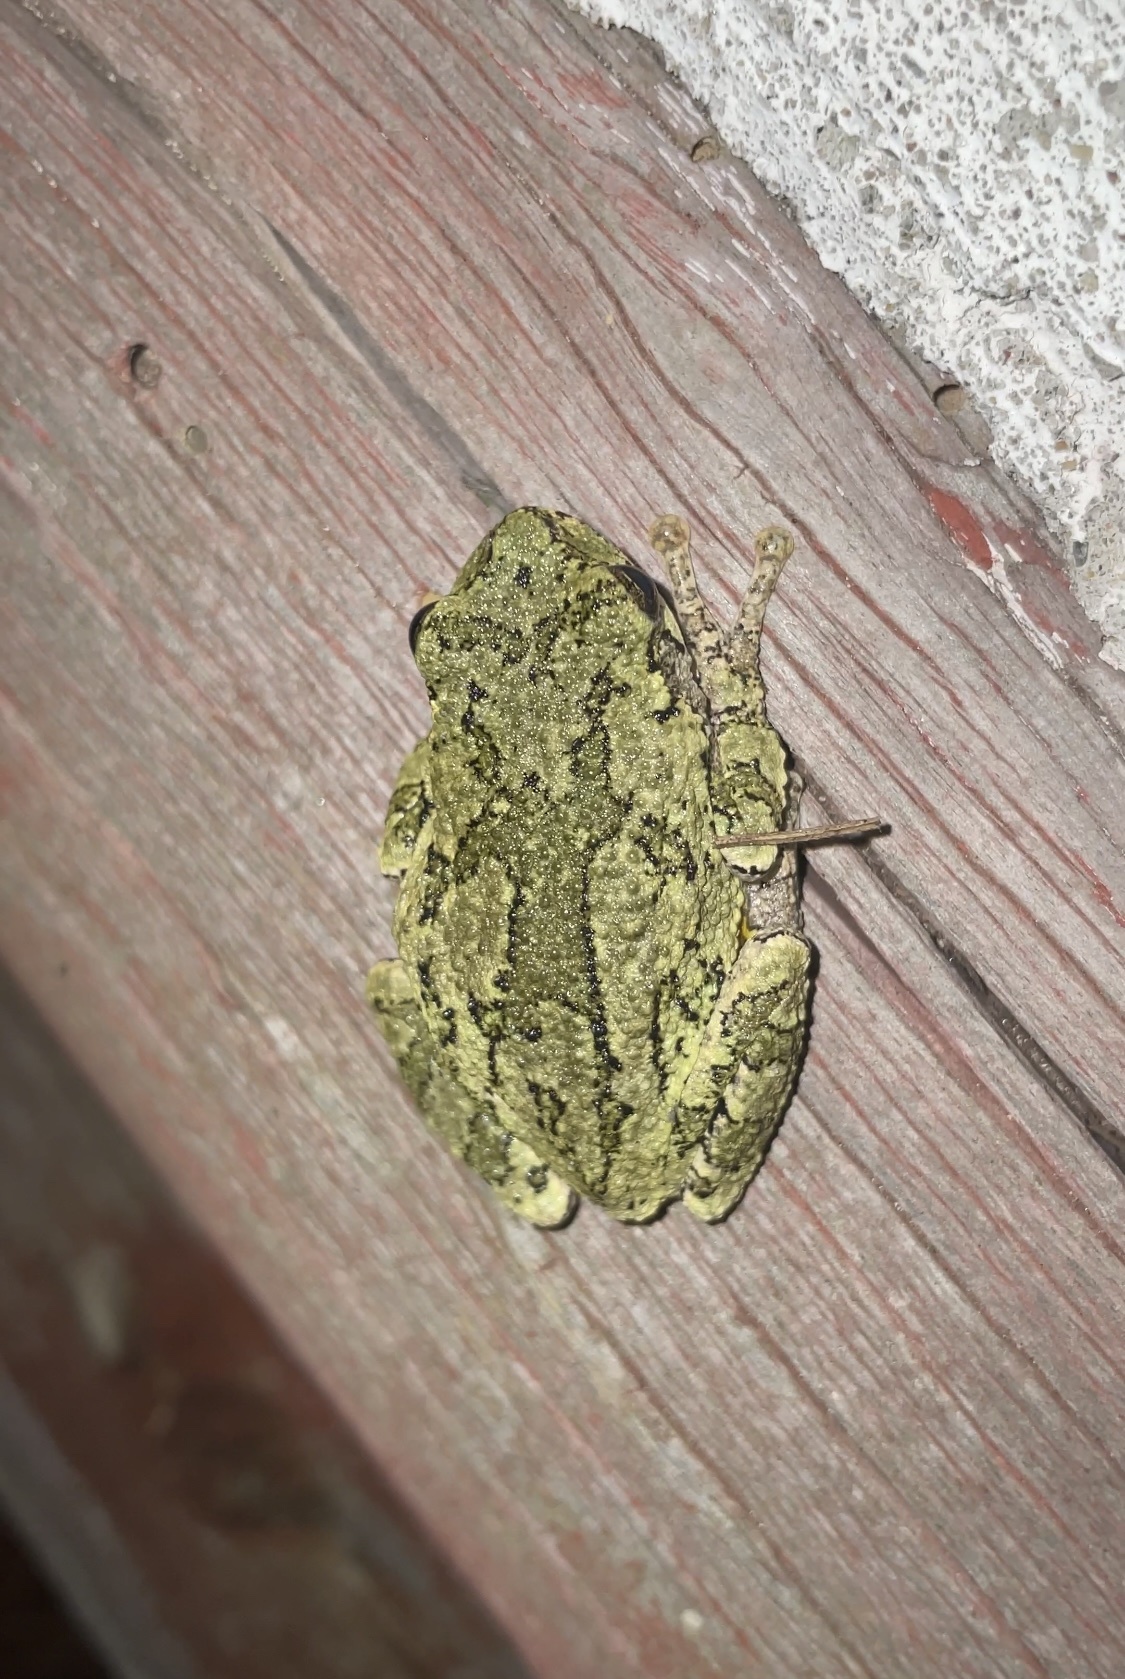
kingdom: Animalia
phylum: Chordata
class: Amphibia
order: Anura
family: Hylidae
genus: Dryophytes
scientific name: Dryophytes versicolor
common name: Gray treefrog
